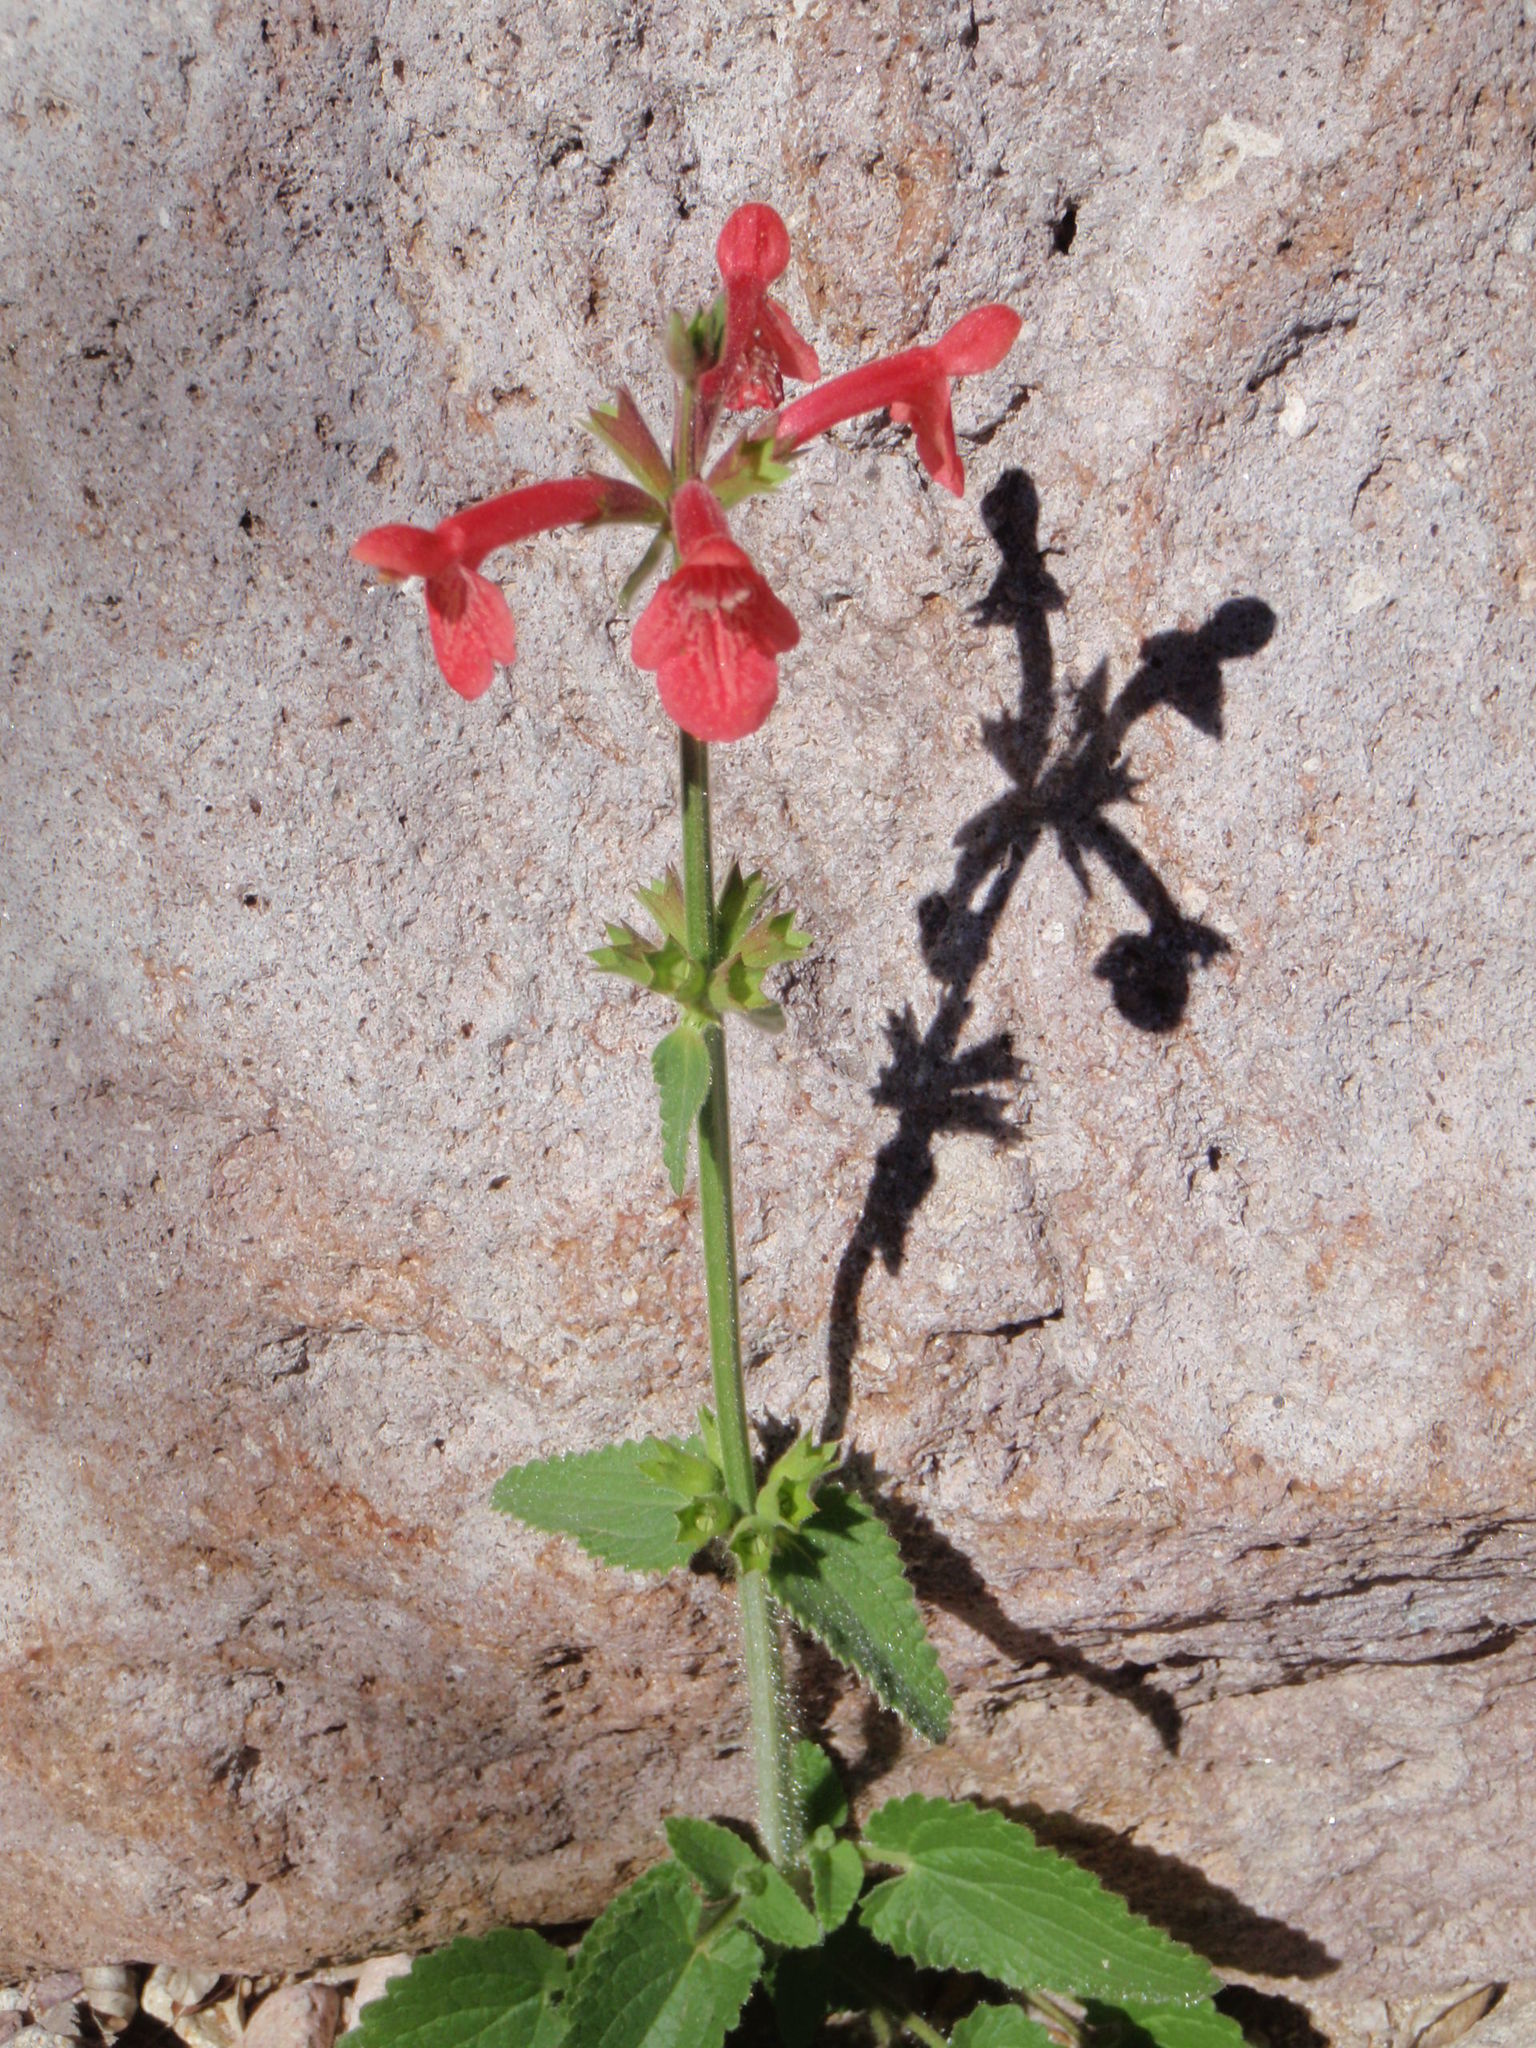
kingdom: Plantae
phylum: Tracheophyta
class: Magnoliopsida
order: Lamiales
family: Lamiaceae
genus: Stachys
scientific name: Stachys coccinea
